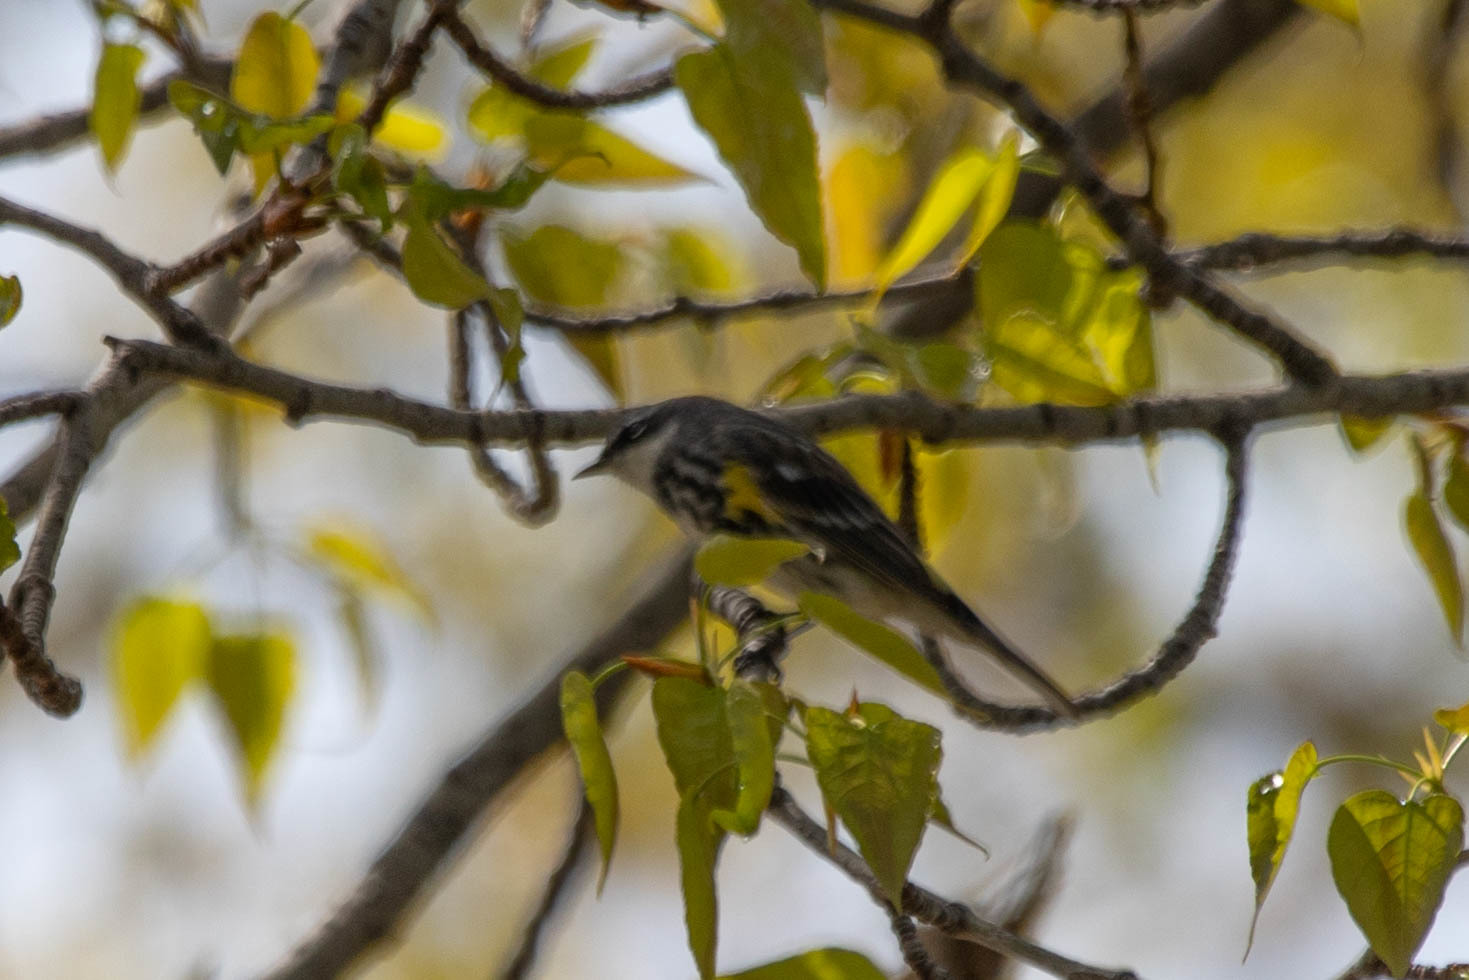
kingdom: Animalia
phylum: Chordata
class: Aves
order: Passeriformes
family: Parulidae
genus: Setophaga
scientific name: Setophaga coronata
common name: Myrtle warbler
